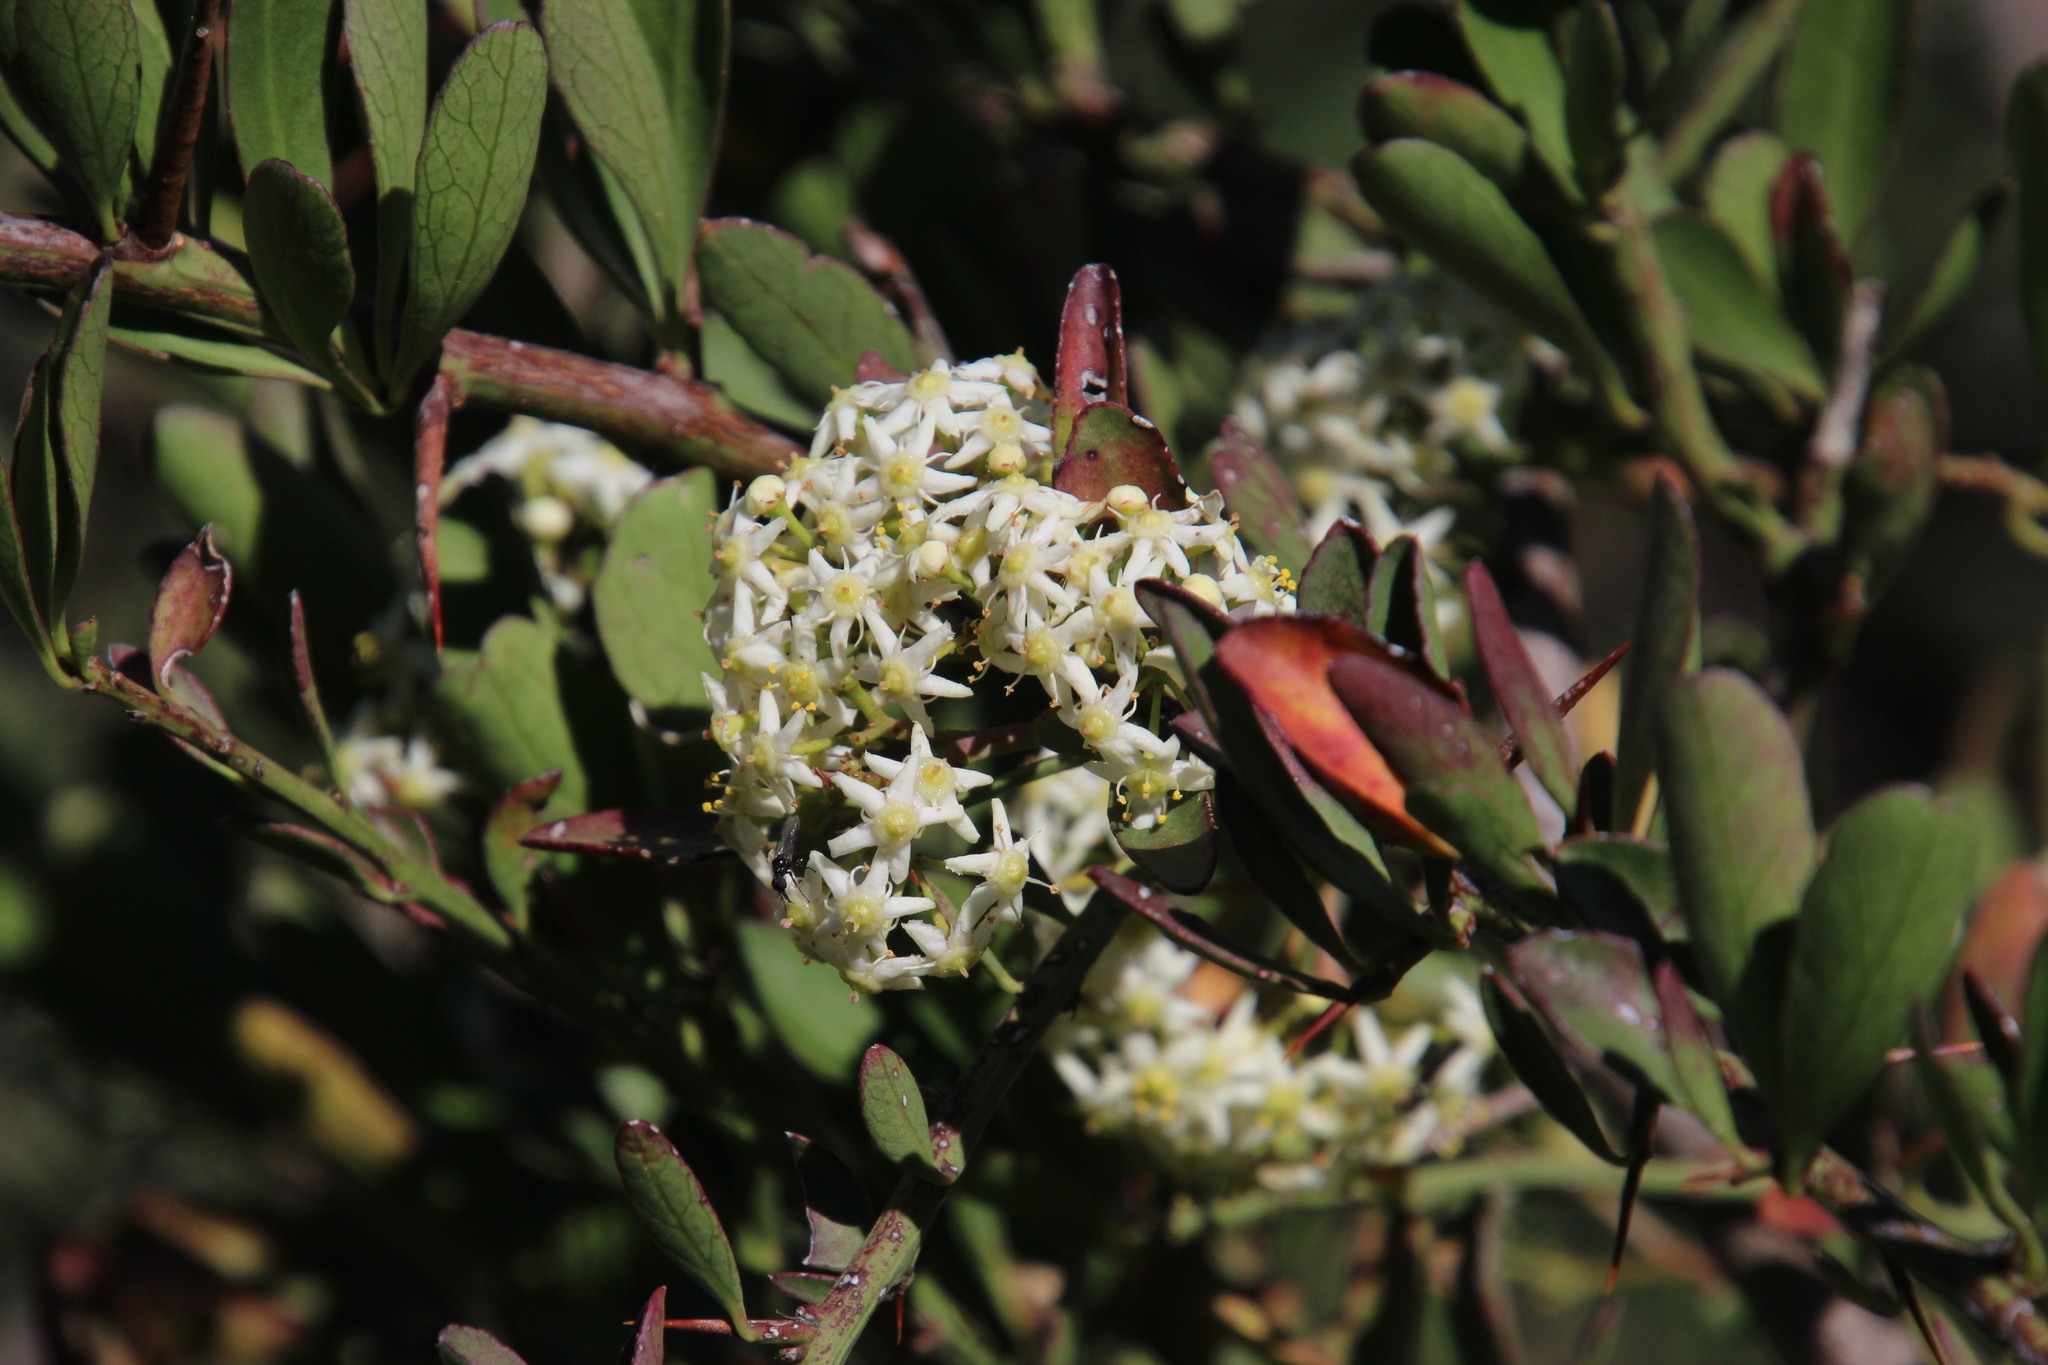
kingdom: Plantae
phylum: Tracheophyta
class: Magnoliopsida
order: Celastrales
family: Celastraceae
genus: Gymnosporia
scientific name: Gymnosporia buxifolia
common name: Common spike-thorn
